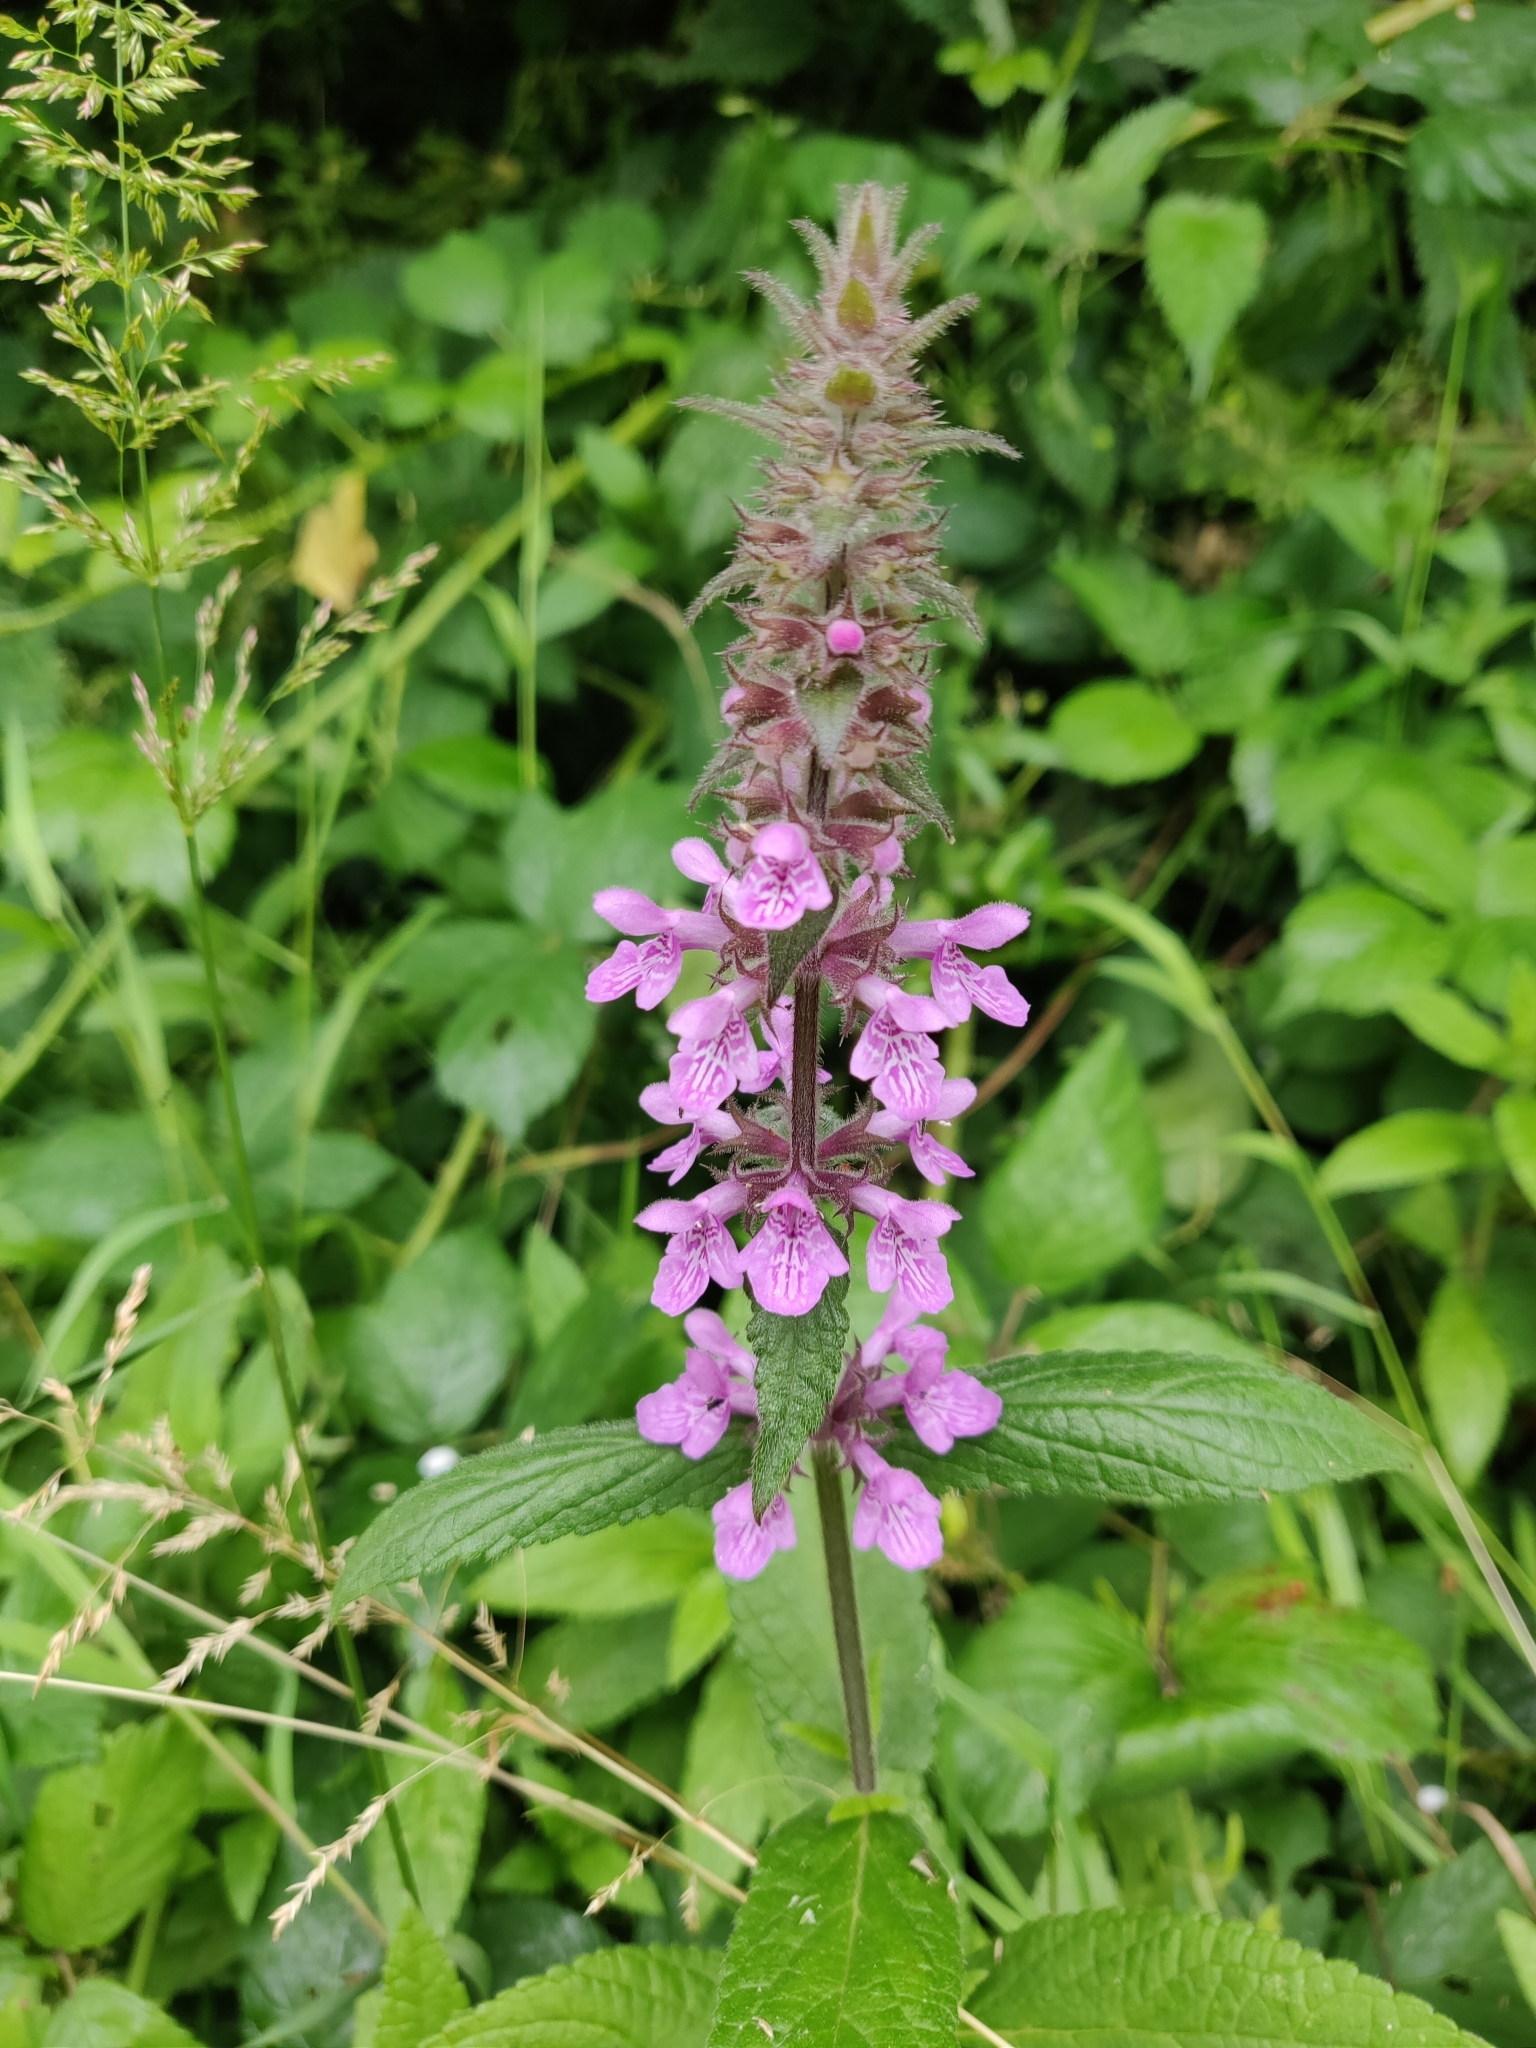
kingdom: Plantae
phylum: Tracheophyta
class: Magnoliopsida
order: Lamiales
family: Lamiaceae
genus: Stachys
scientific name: Stachys palustris
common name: Marsh woundwort
